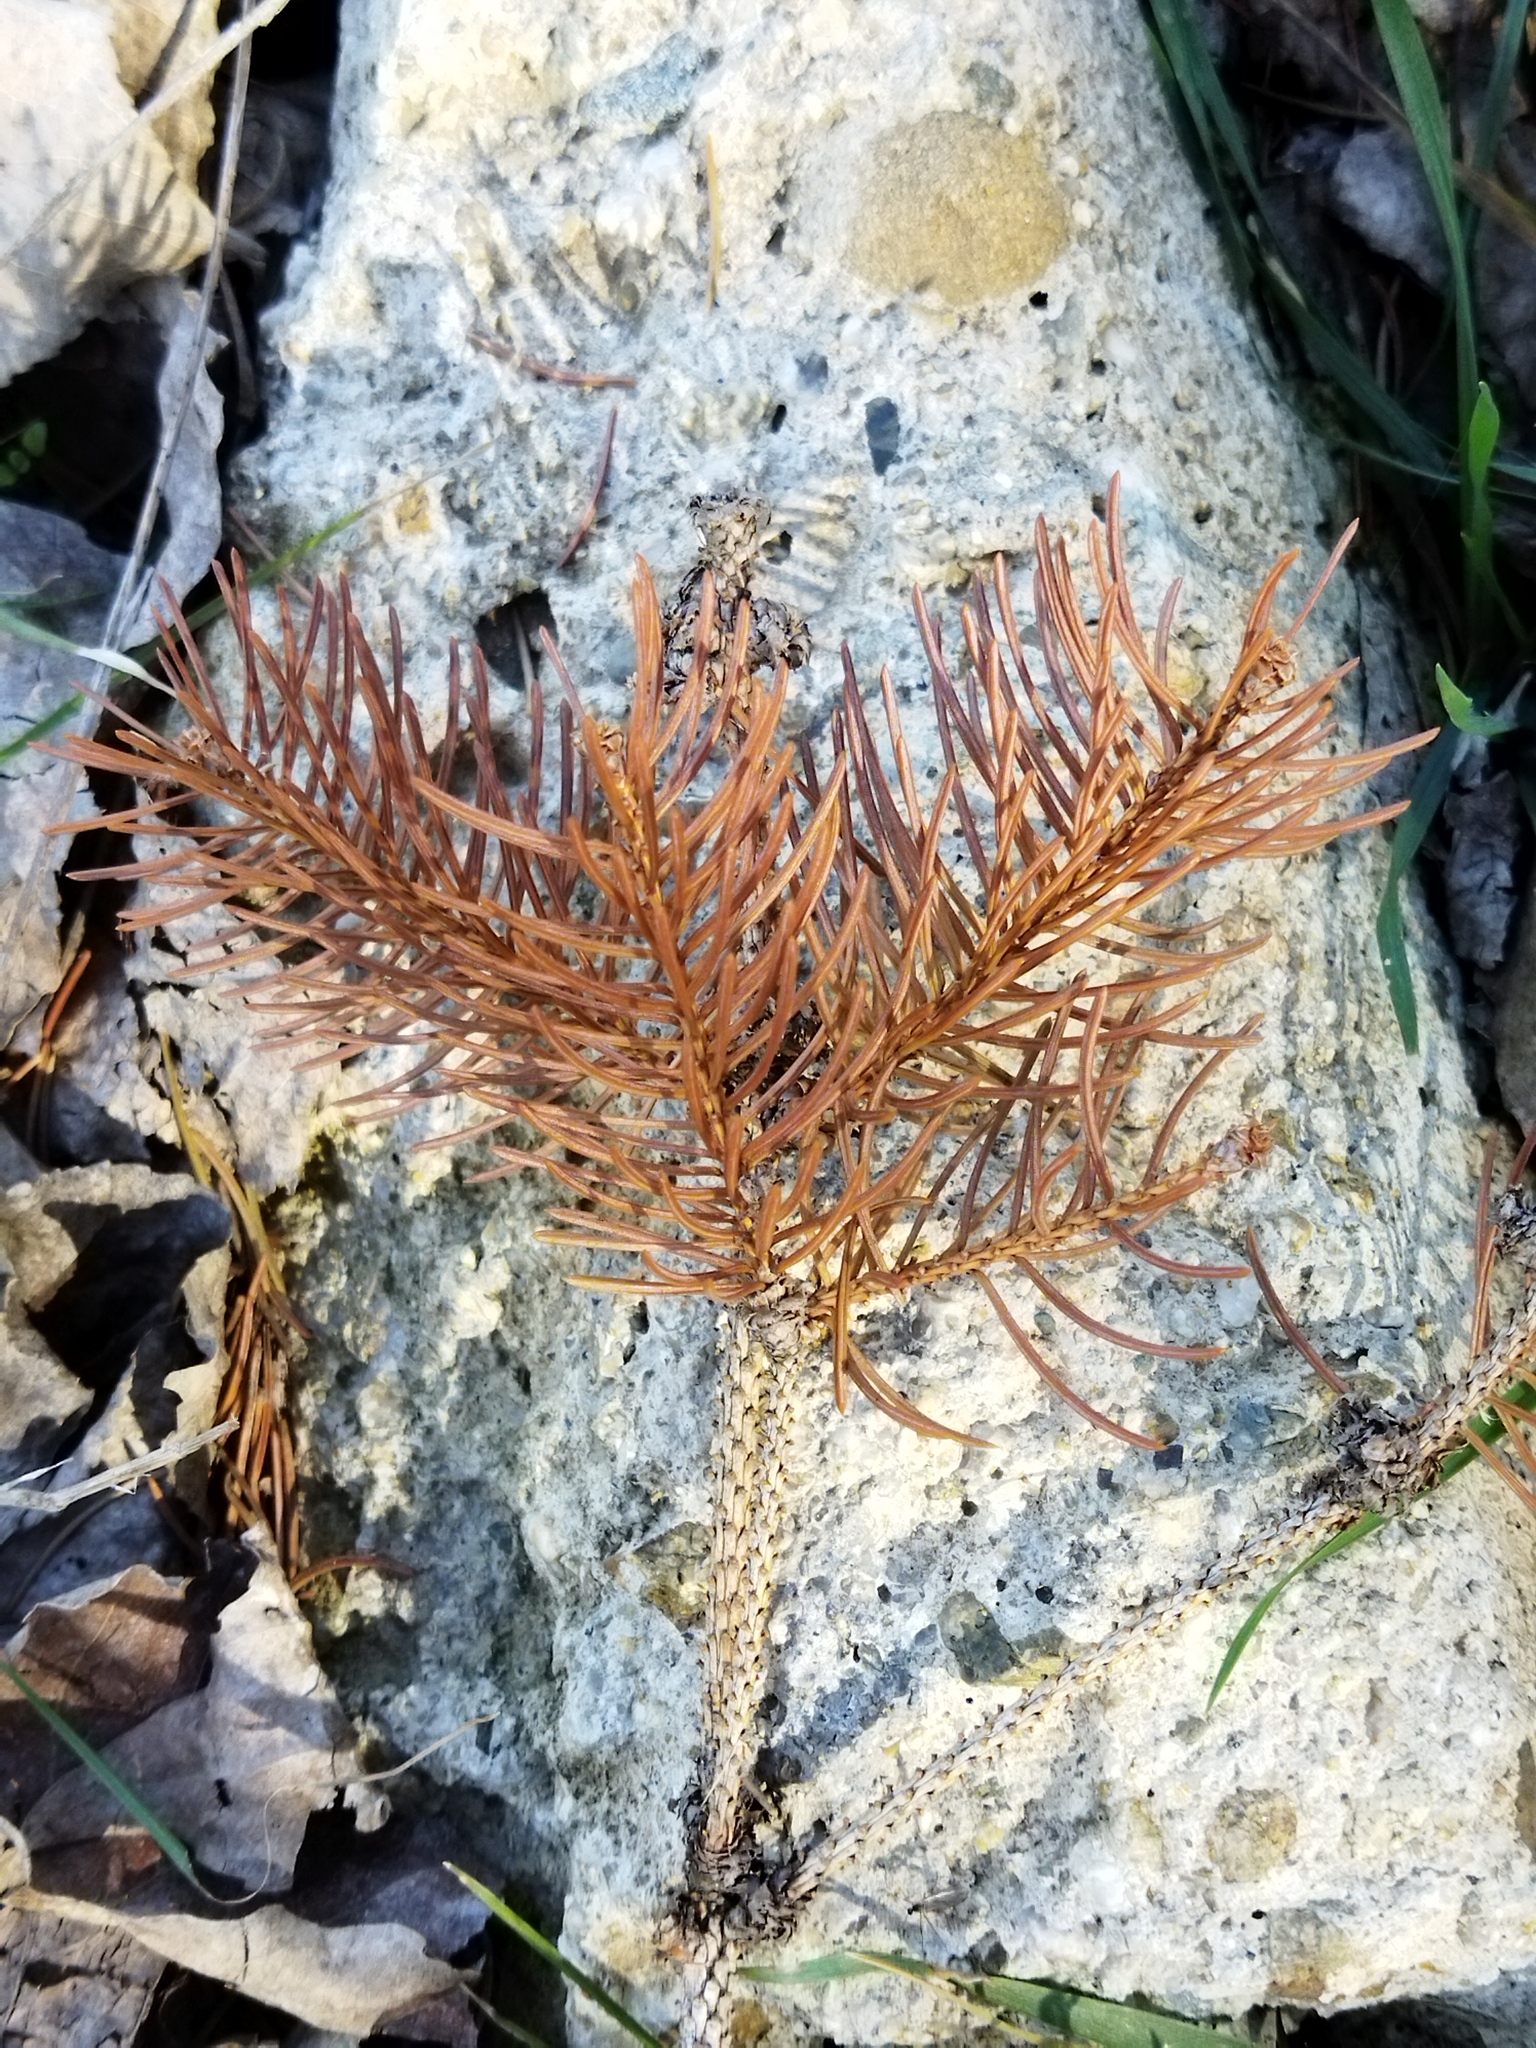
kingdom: Plantae
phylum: Tracheophyta
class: Pinopsida
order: Pinales
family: Pinaceae
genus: Picea
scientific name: Picea abies
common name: Norway spruce
